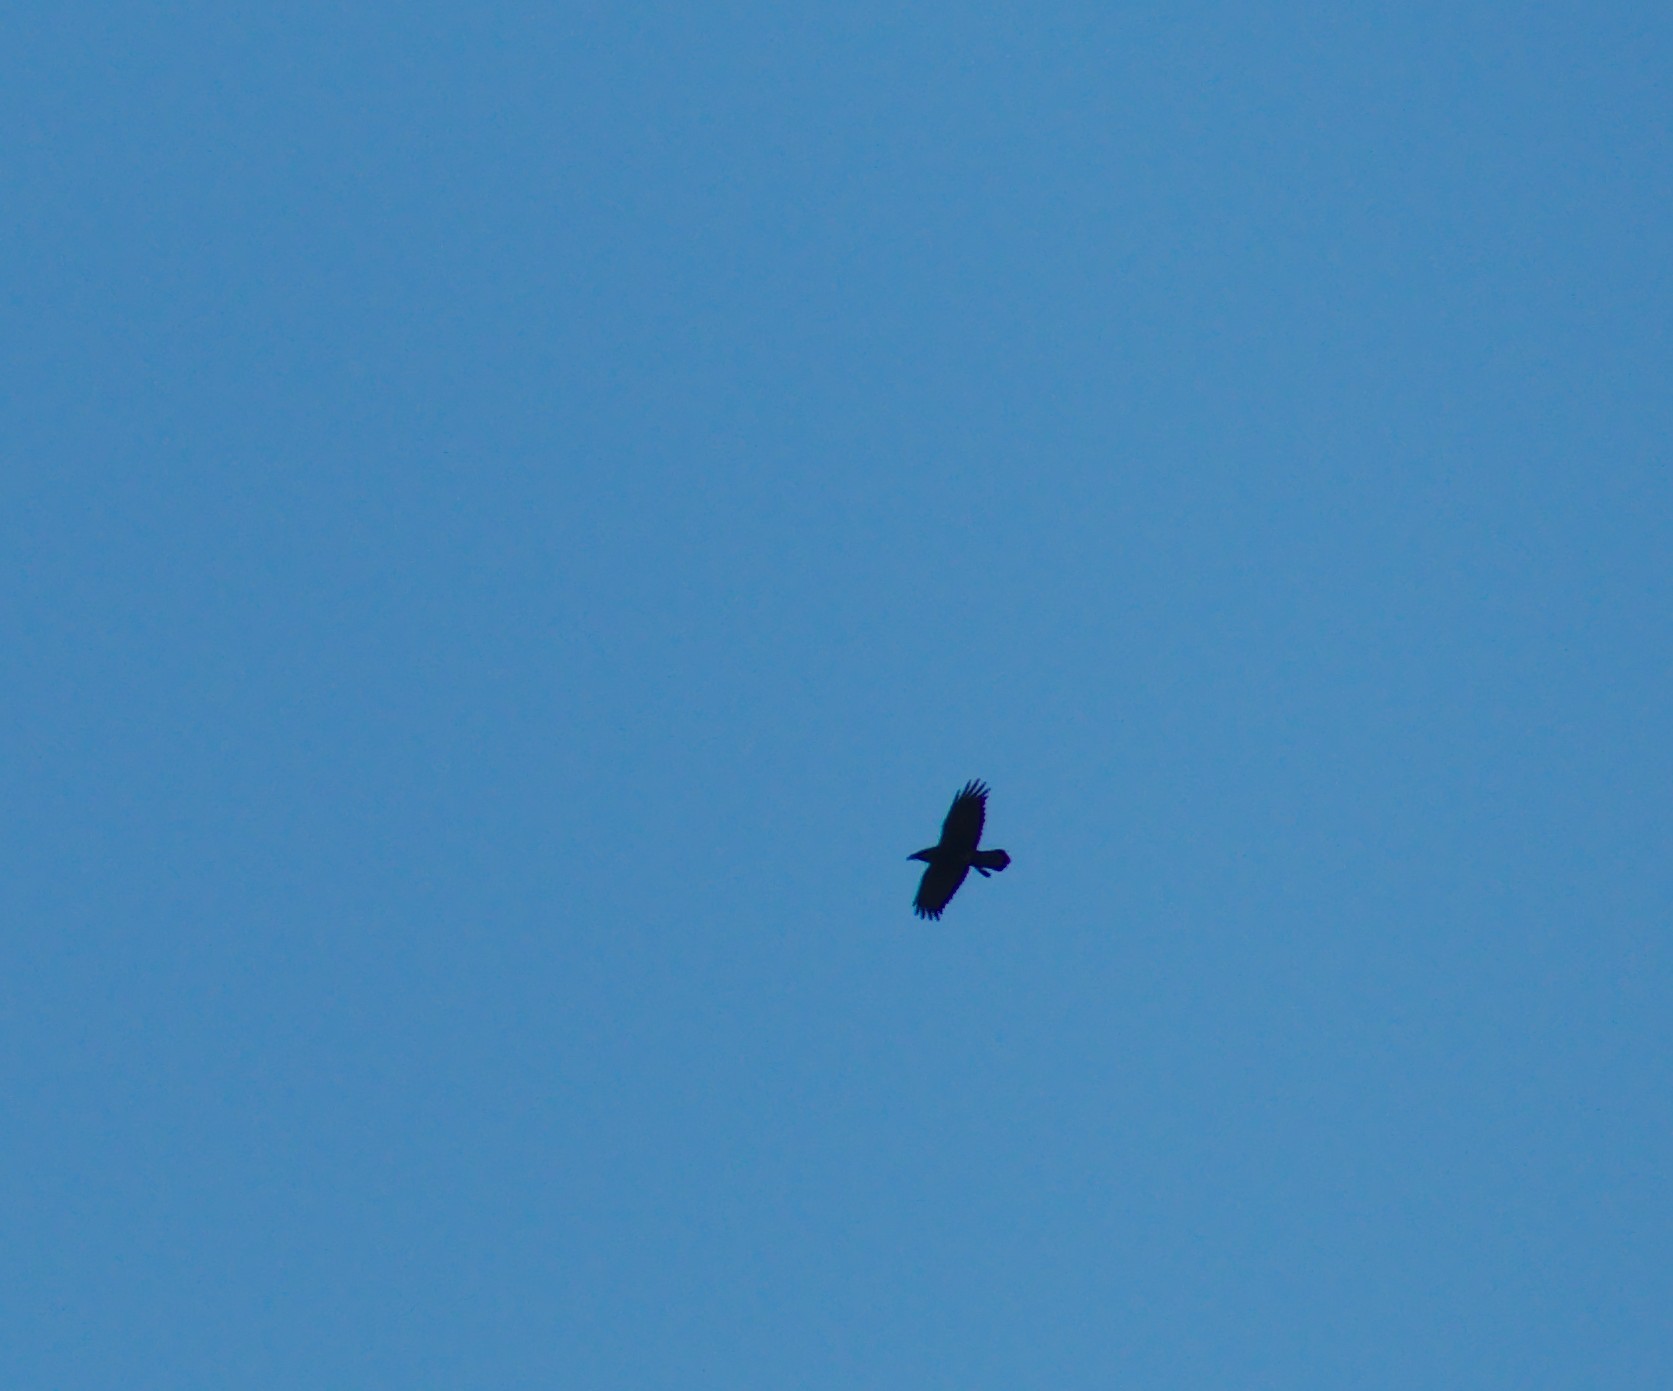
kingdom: Animalia
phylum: Chordata
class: Aves
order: Passeriformes
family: Corvidae
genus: Corvus
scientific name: Corvus corax
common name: Common raven
